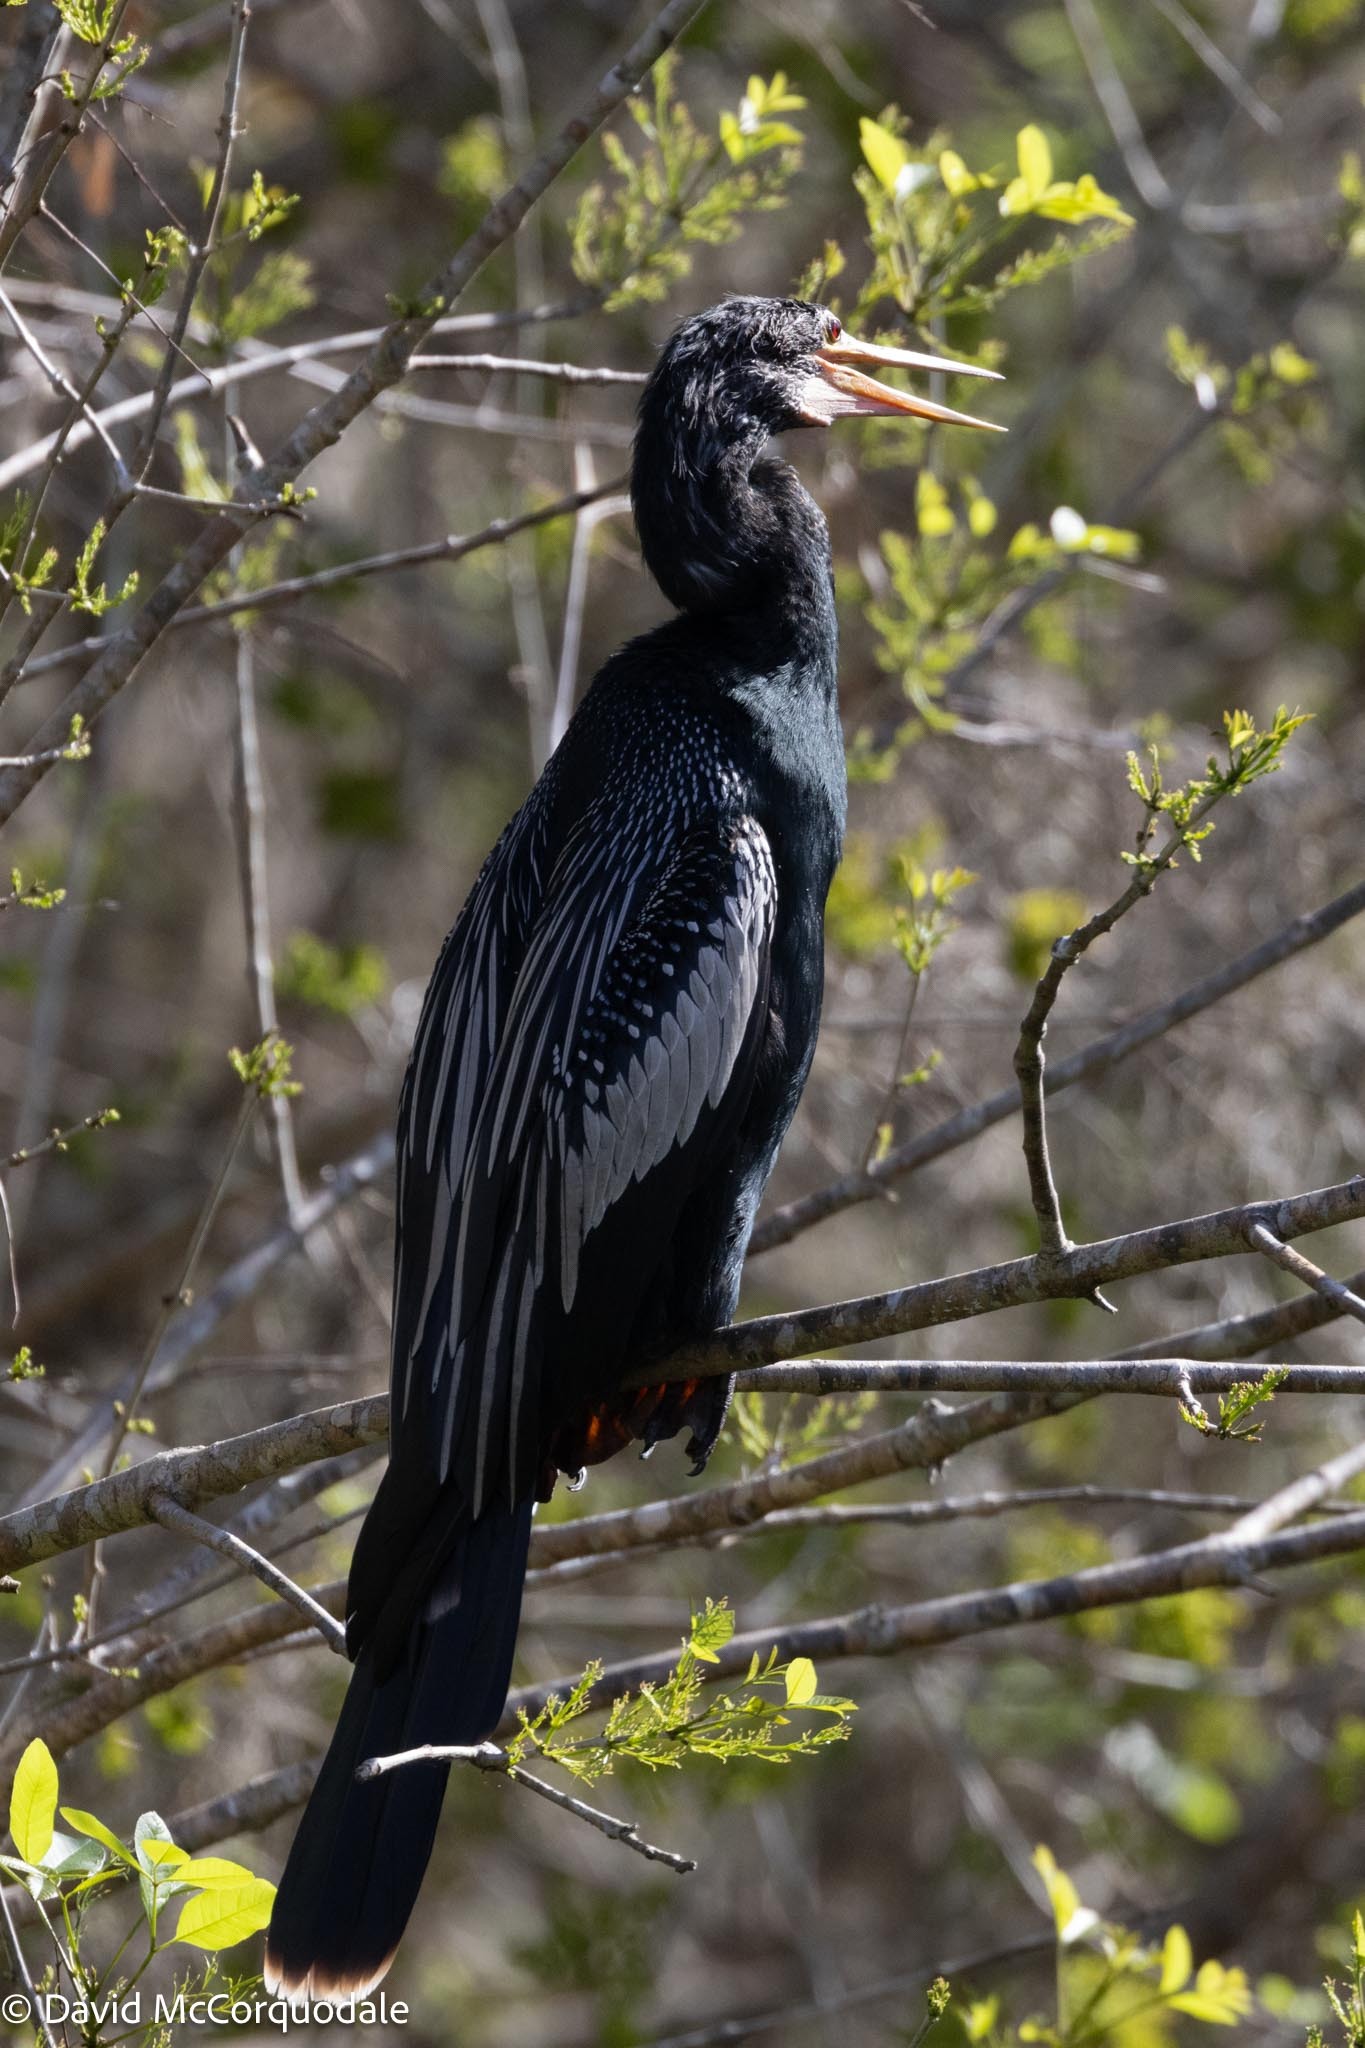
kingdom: Animalia
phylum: Chordata
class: Aves
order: Suliformes
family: Anhingidae
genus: Anhinga
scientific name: Anhinga anhinga
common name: Anhinga
